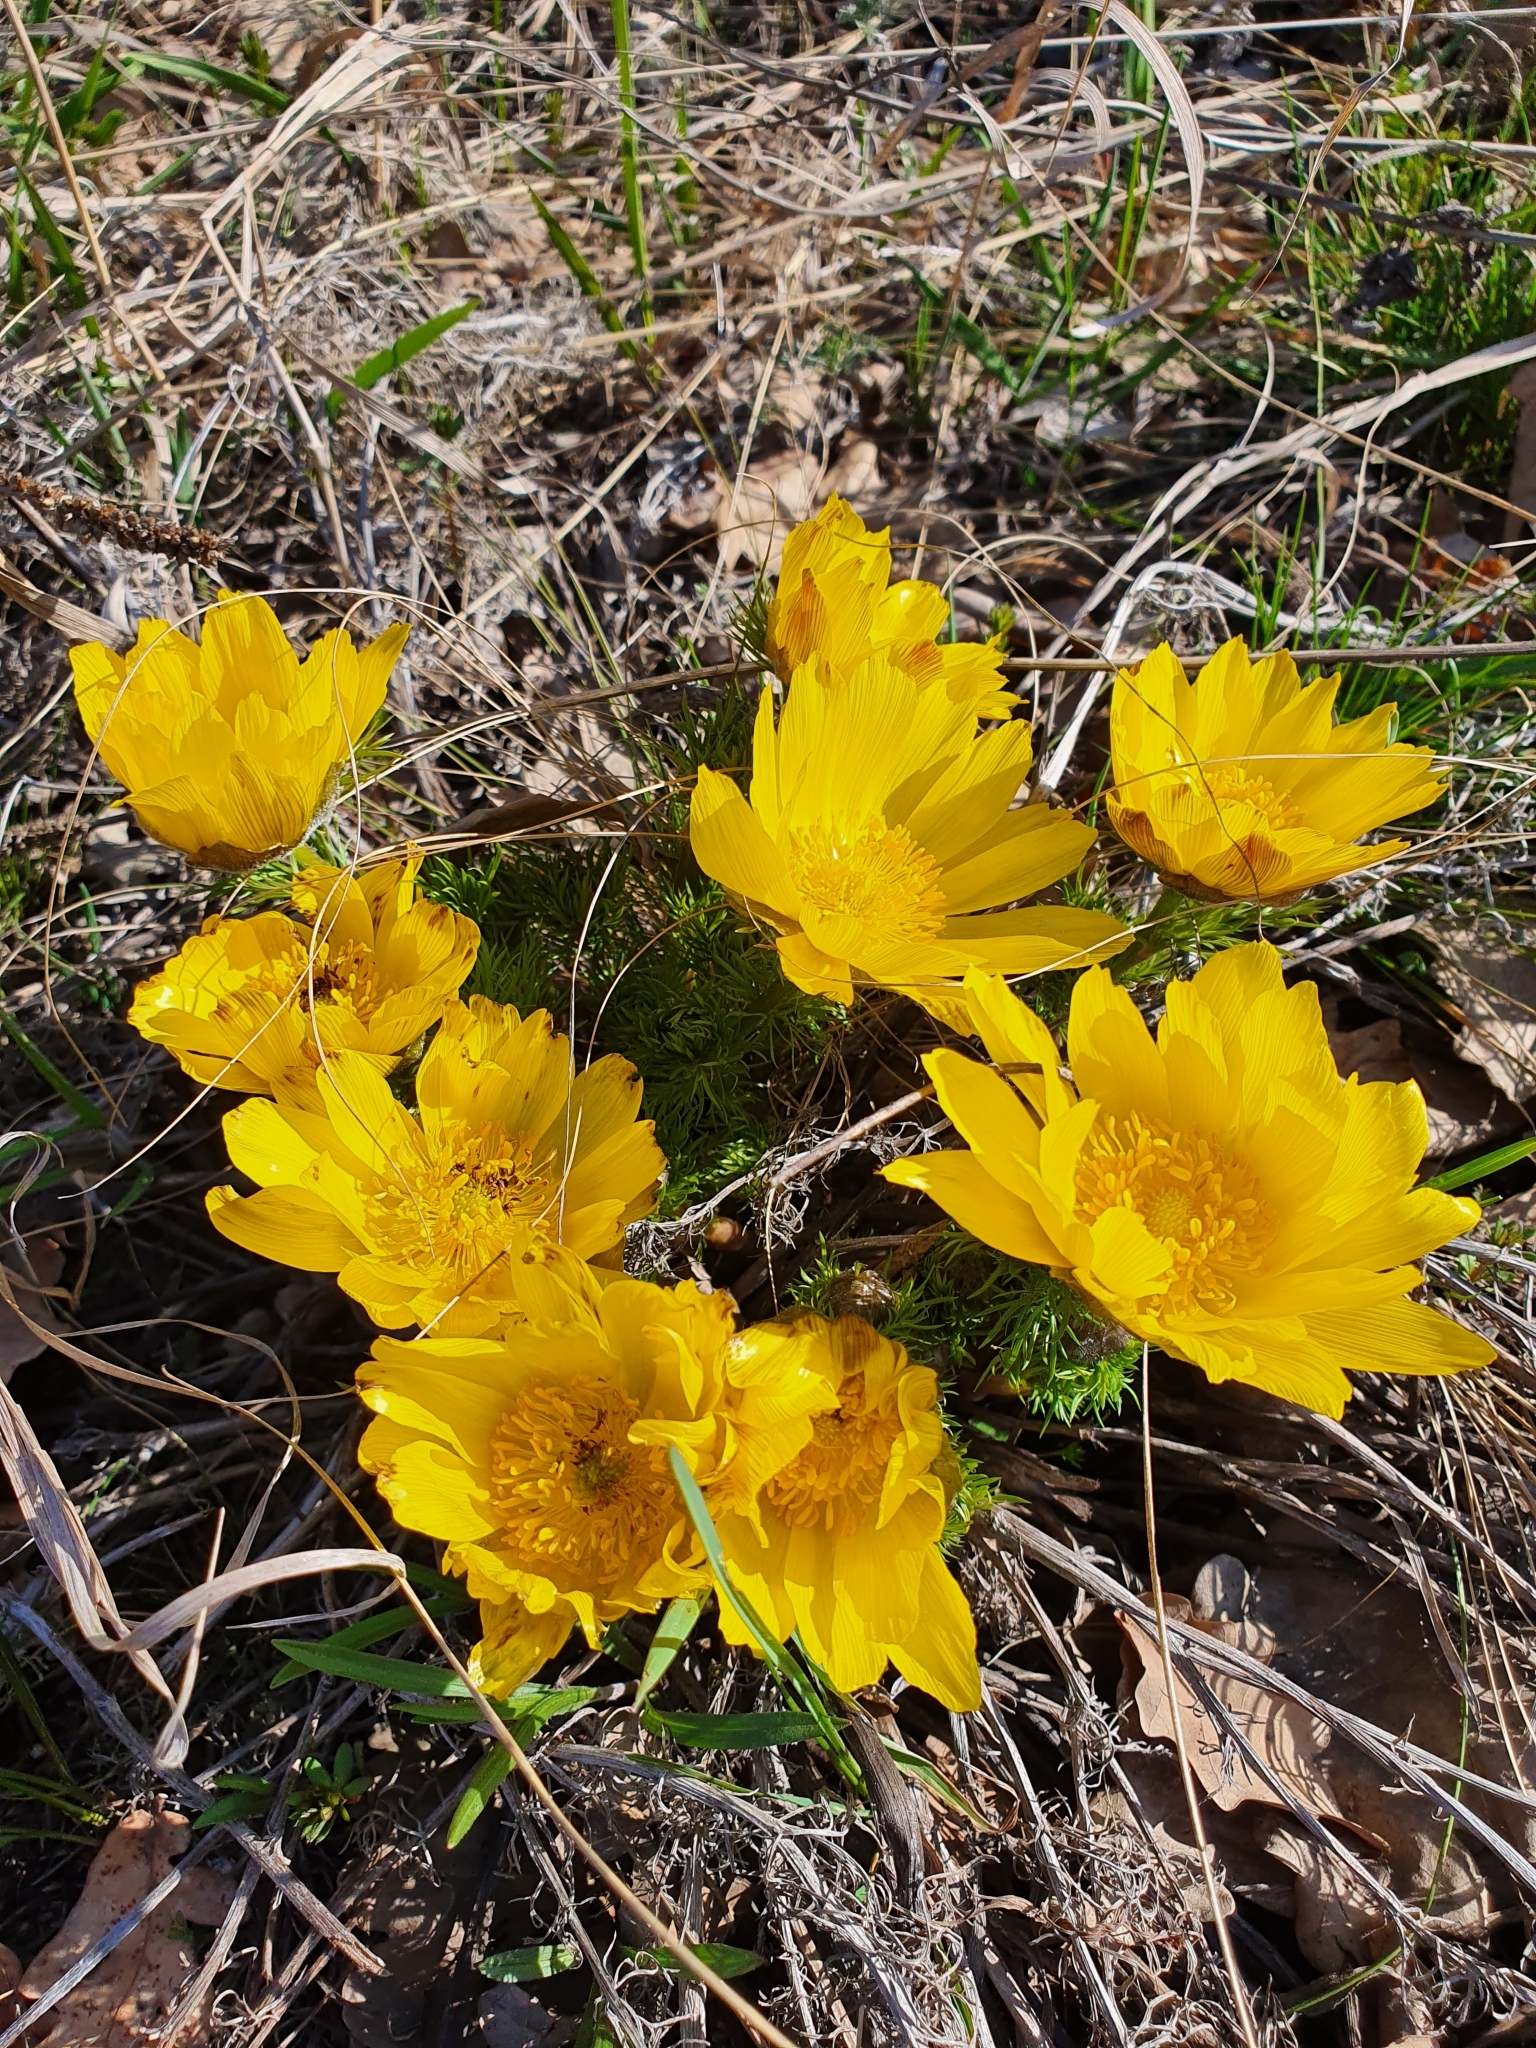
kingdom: Plantae
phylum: Tracheophyta
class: Magnoliopsida
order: Ranunculales
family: Ranunculaceae
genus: Adonis
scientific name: Adonis vernalis
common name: Yellow pheasants-eye
